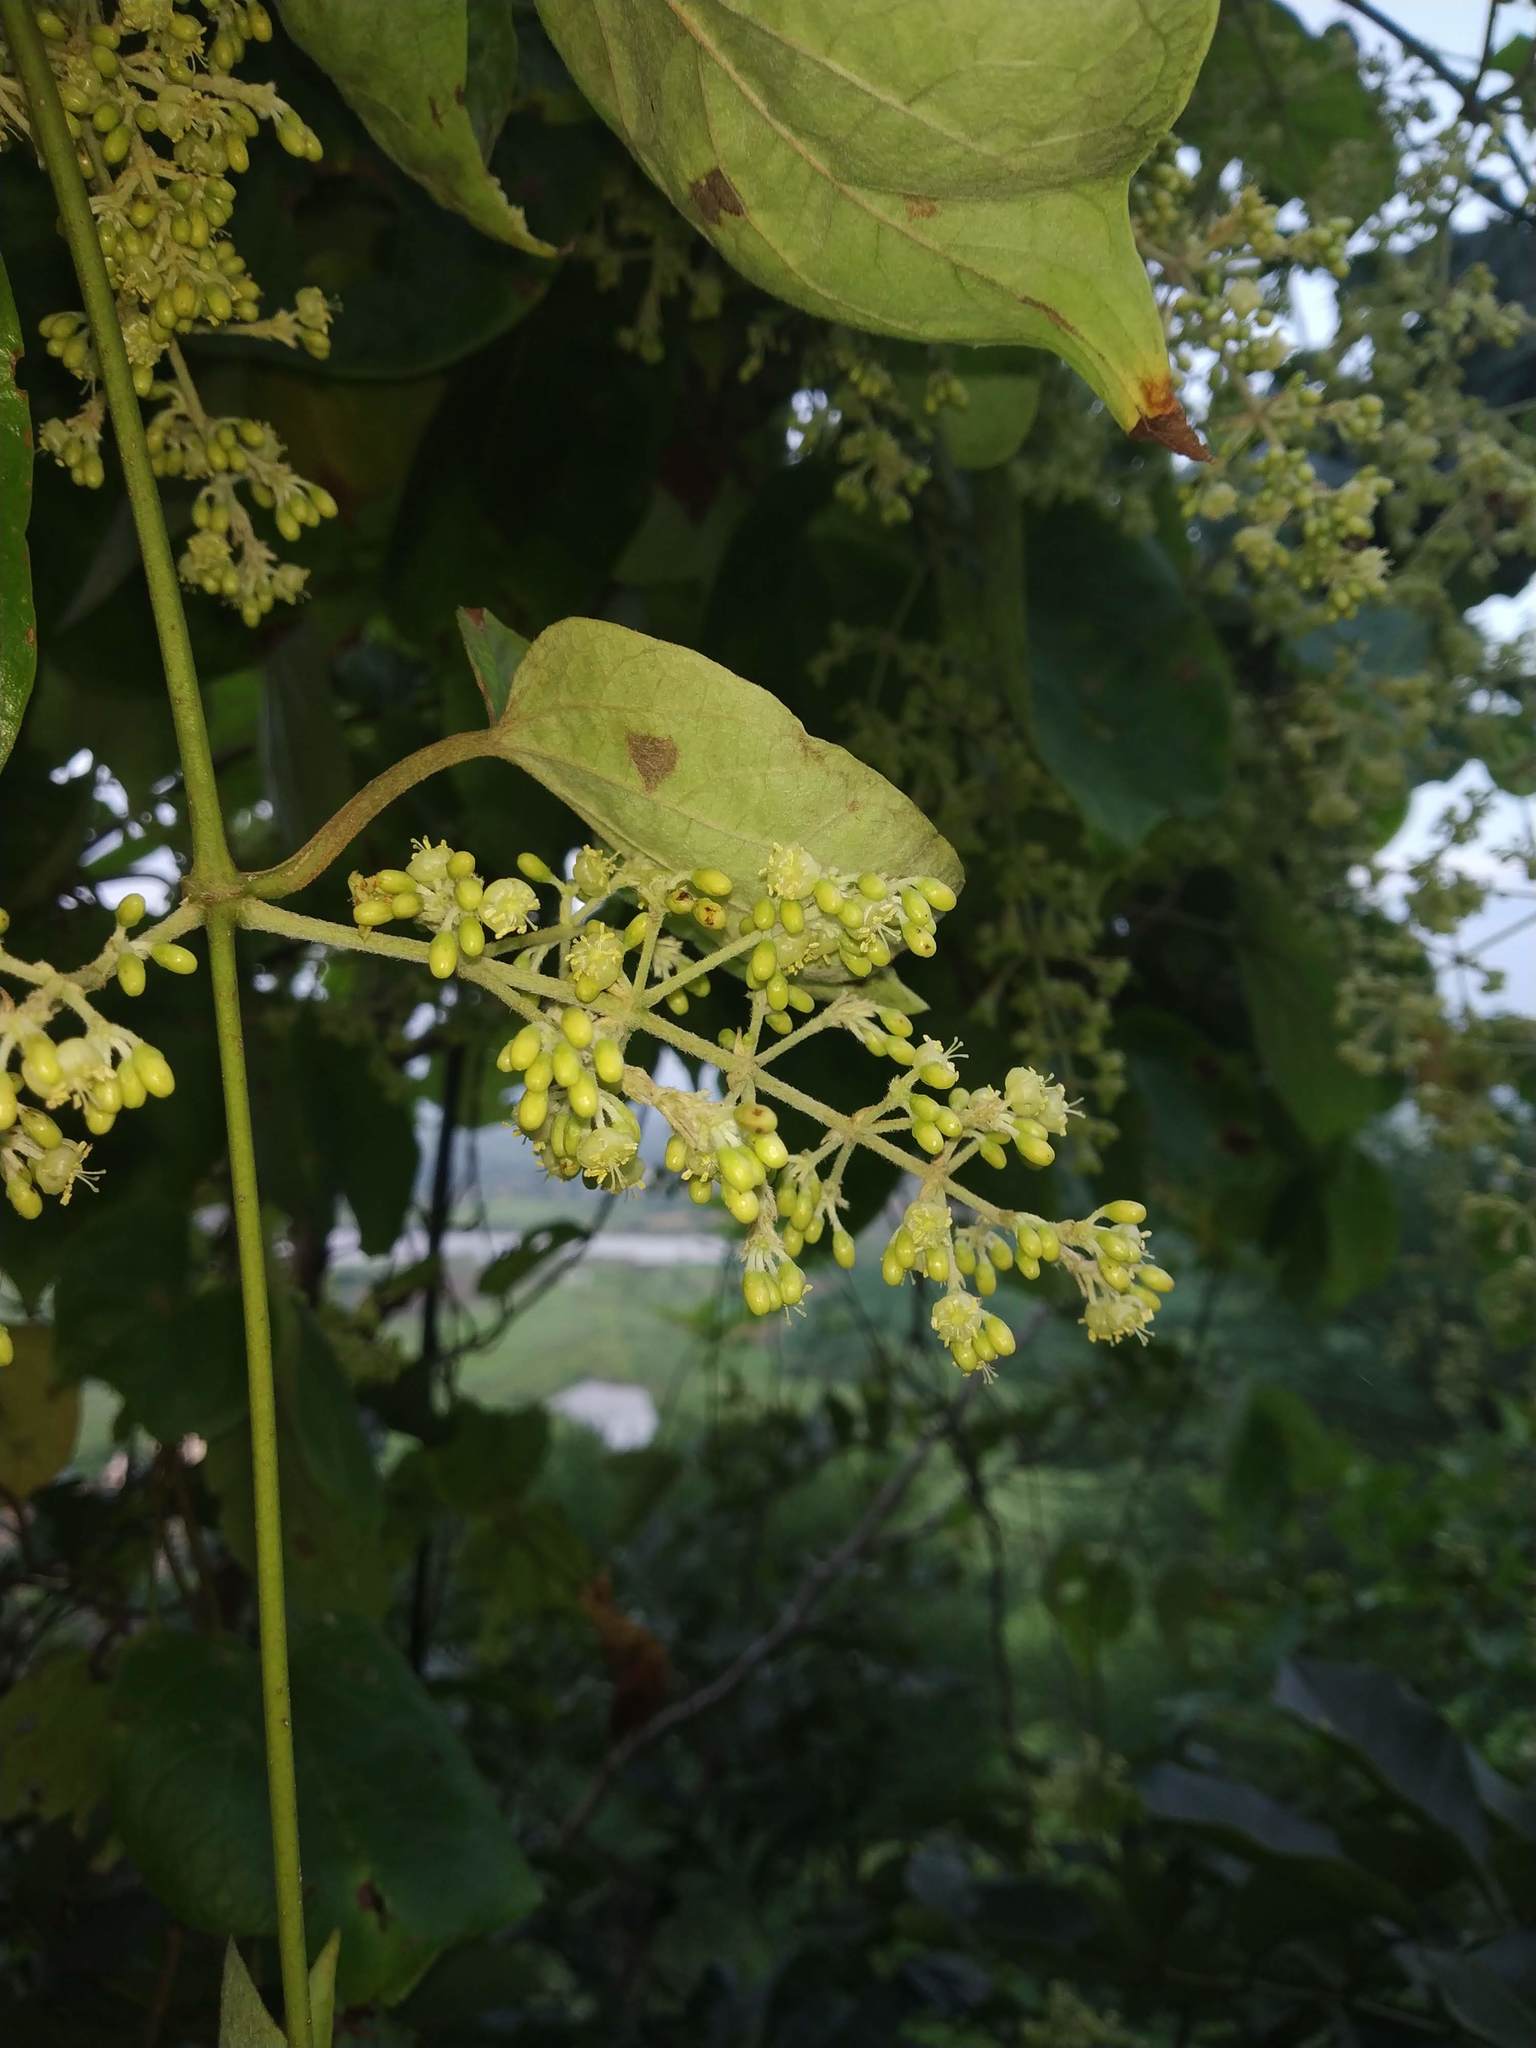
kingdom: Plantae
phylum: Tracheophyta
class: Magnoliopsida
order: Malpighiales
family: Malpighiaceae
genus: Aspidopterys
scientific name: Aspidopterys cordata
